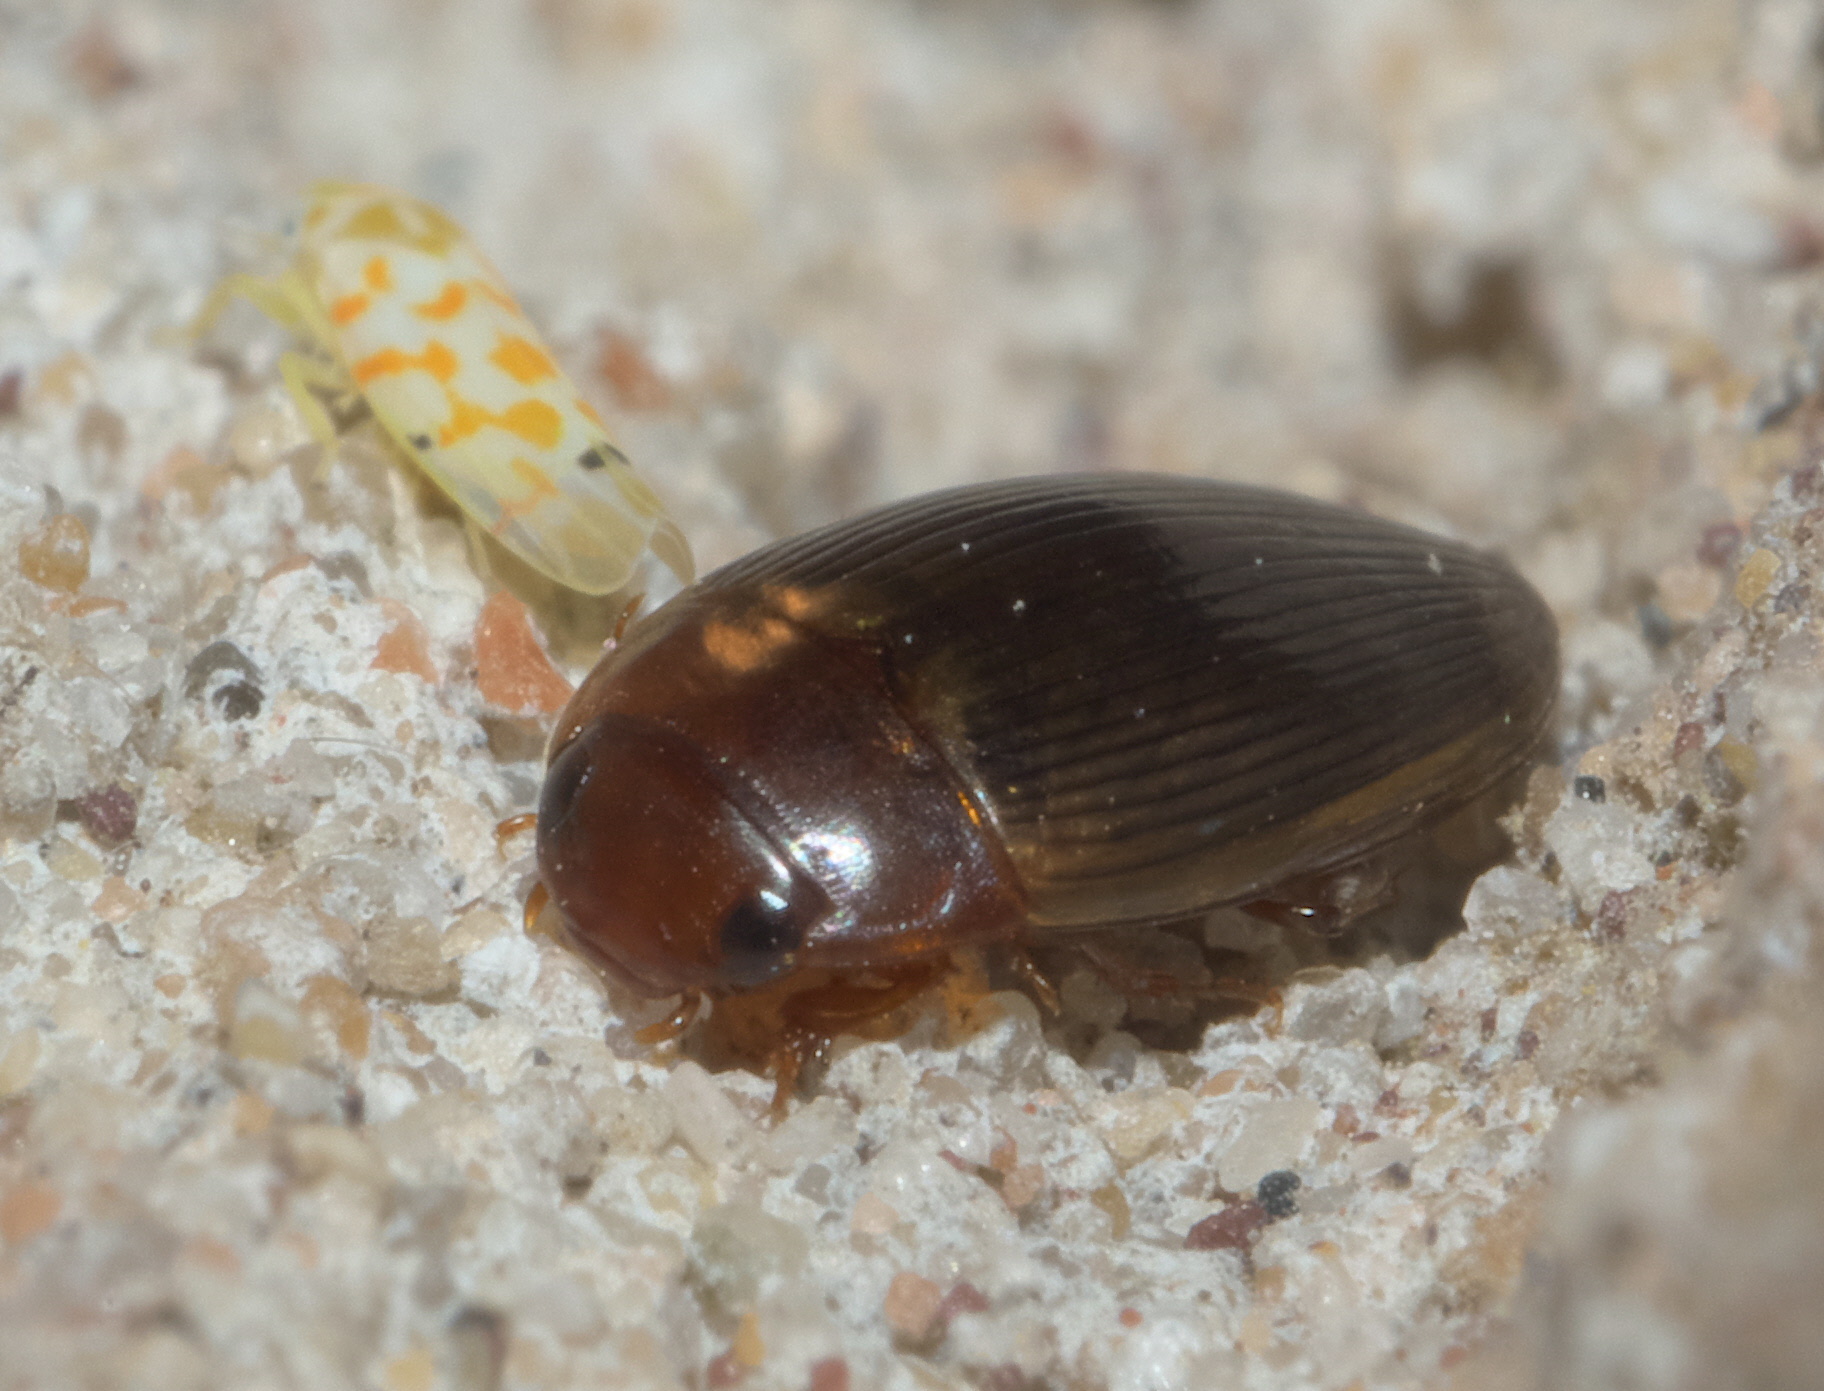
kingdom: Animalia
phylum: Arthropoda
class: Insecta
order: Coleoptera
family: Dytiscidae
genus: Copelatus
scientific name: Copelatus glyphicus
